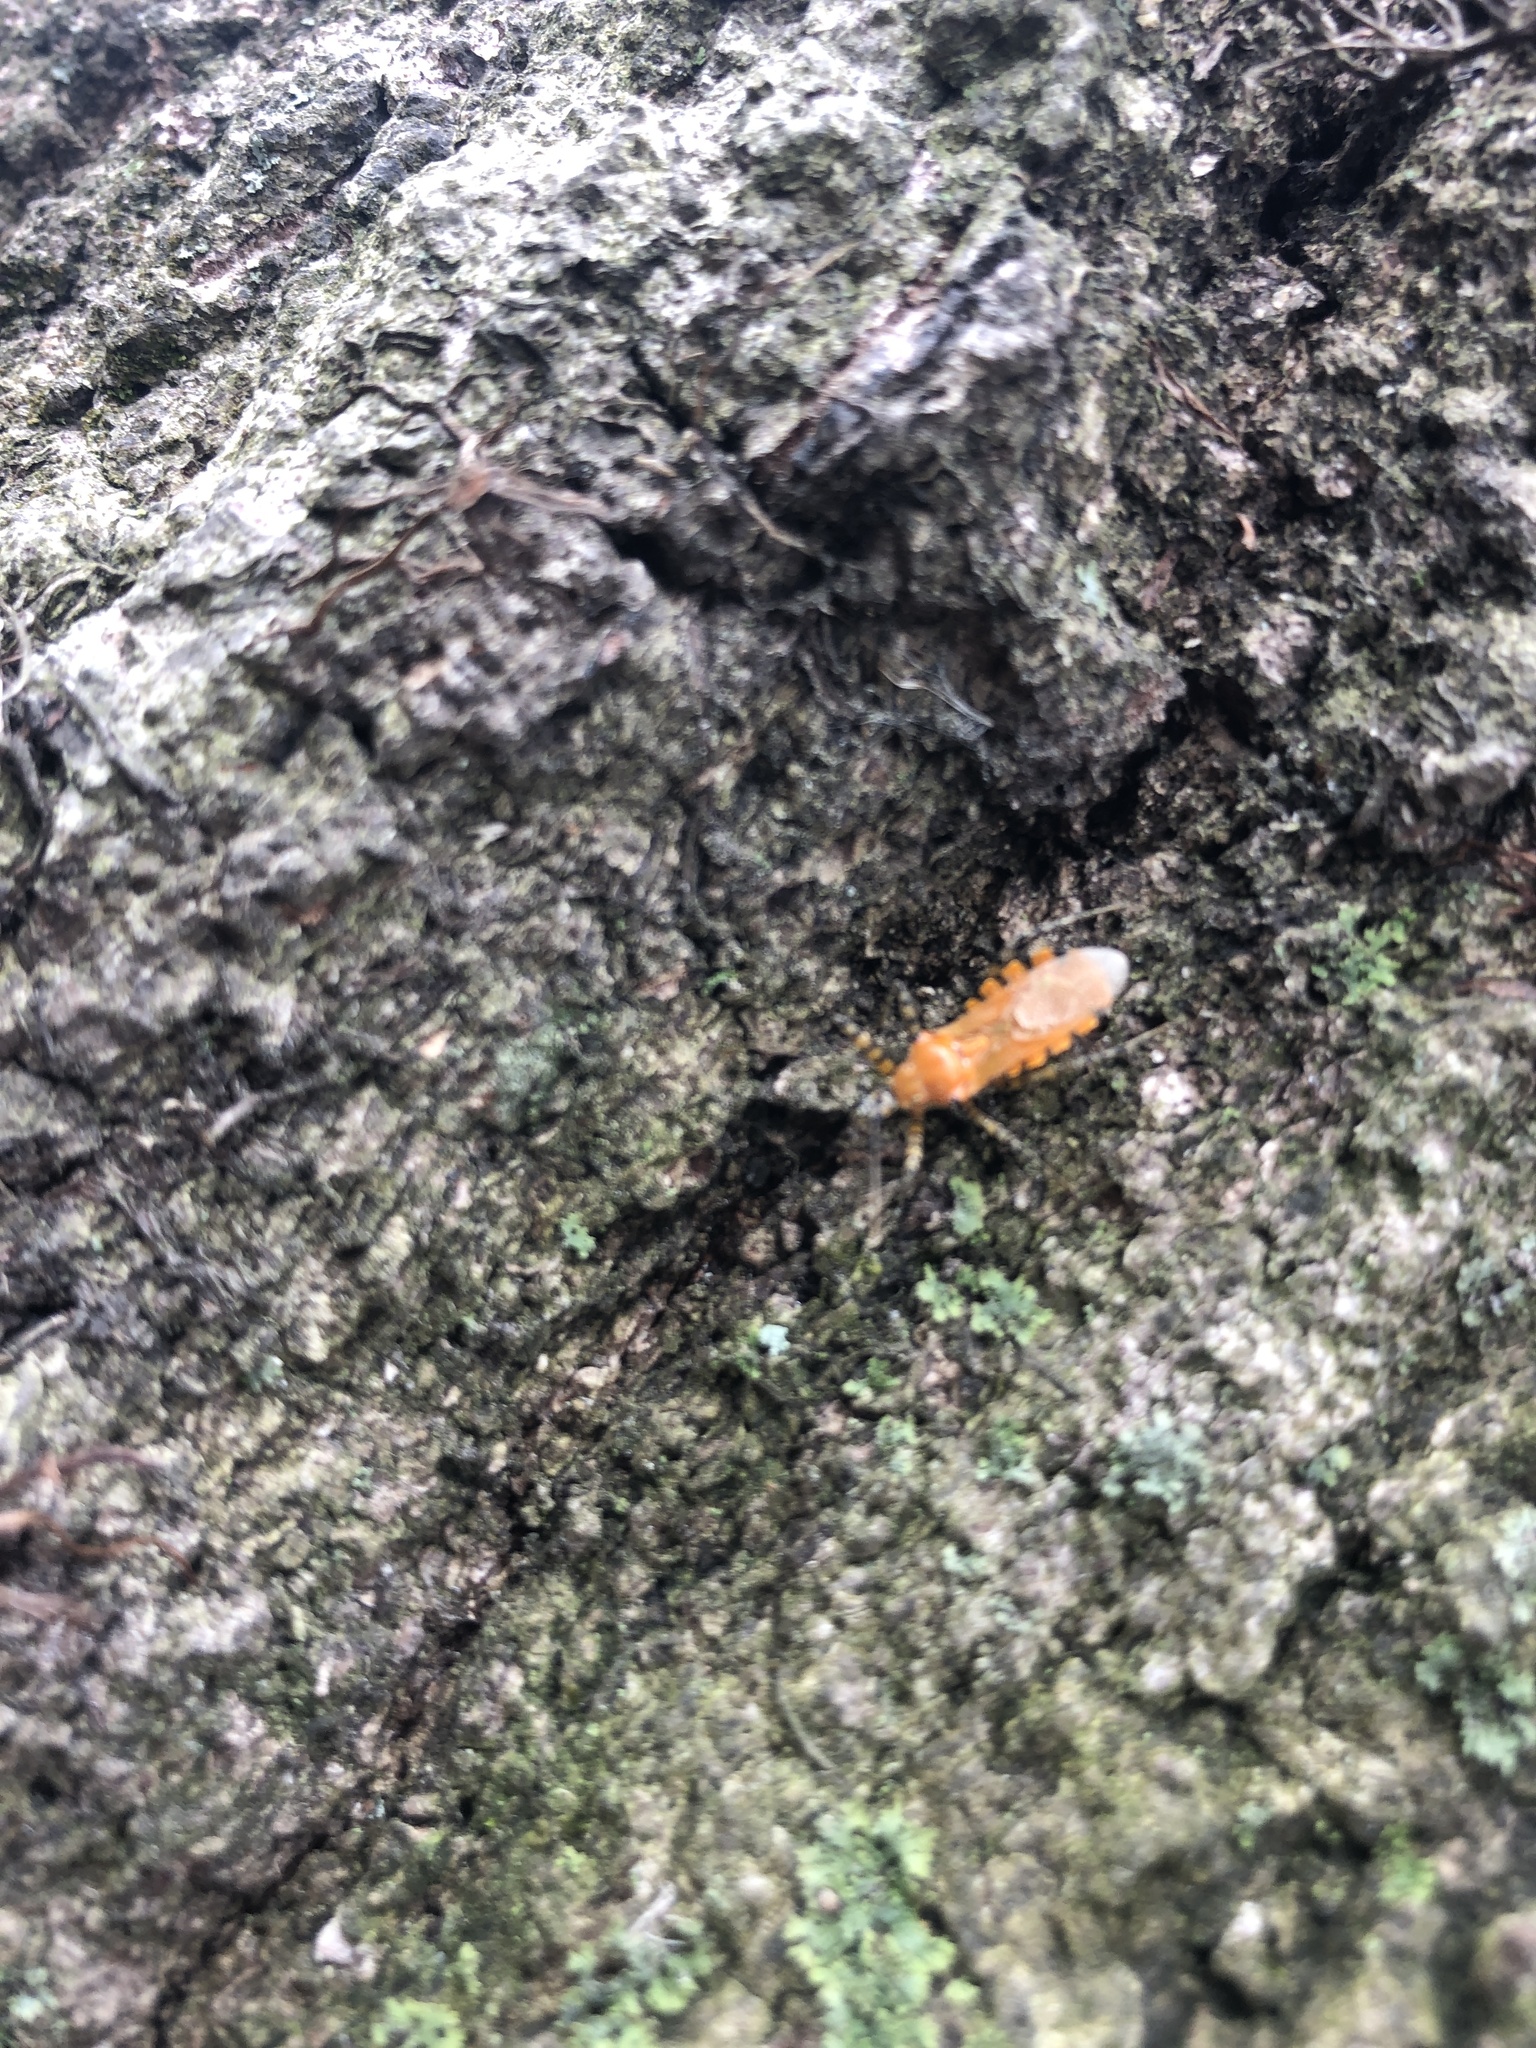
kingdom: Animalia
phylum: Arthropoda
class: Insecta
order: Hemiptera
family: Reduviidae
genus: Pselliopus
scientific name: Pselliopus barberi
